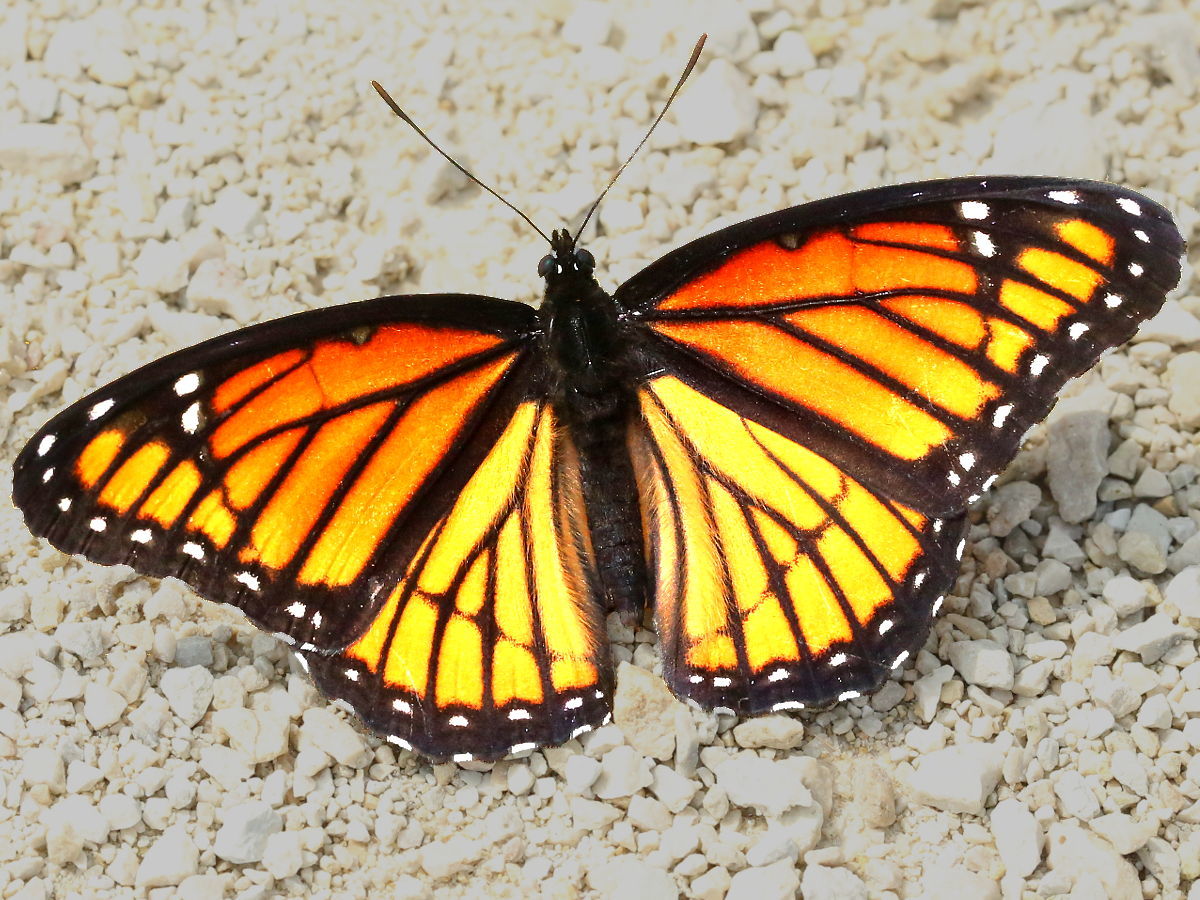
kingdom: Animalia
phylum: Arthropoda
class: Insecta
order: Lepidoptera
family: Nymphalidae
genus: Limenitis
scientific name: Limenitis archippus
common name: Viceroy
